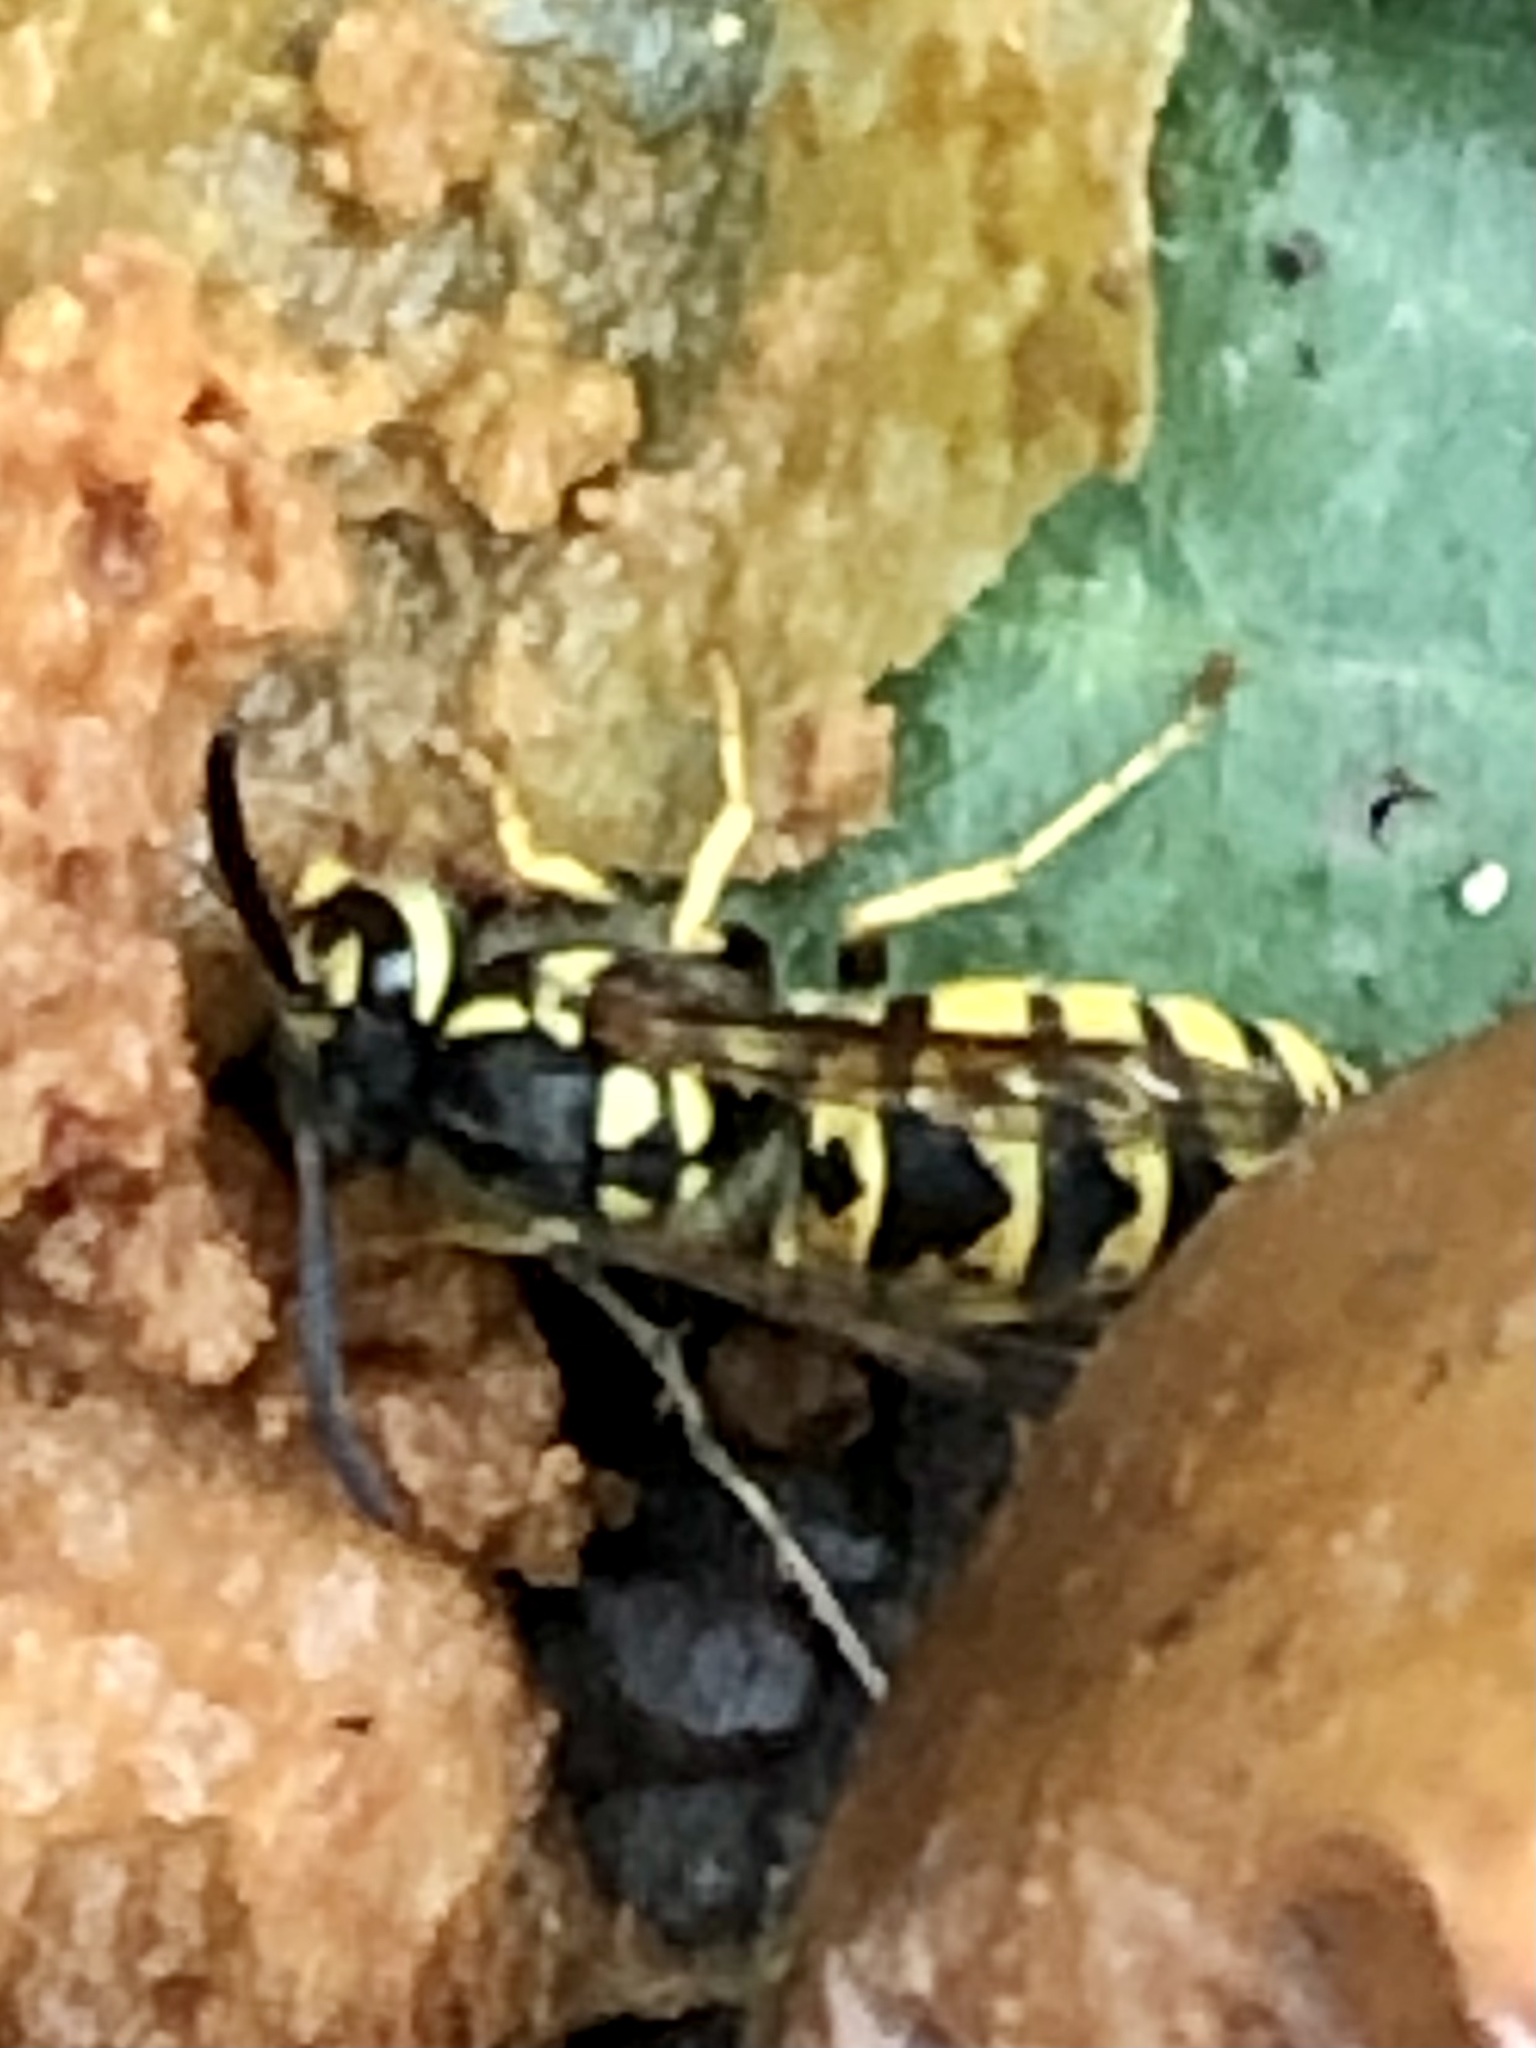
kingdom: Animalia
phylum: Arthropoda
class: Insecta
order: Hymenoptera
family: Vespidae
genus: Vespula
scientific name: Vespula germanica
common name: German wasp
